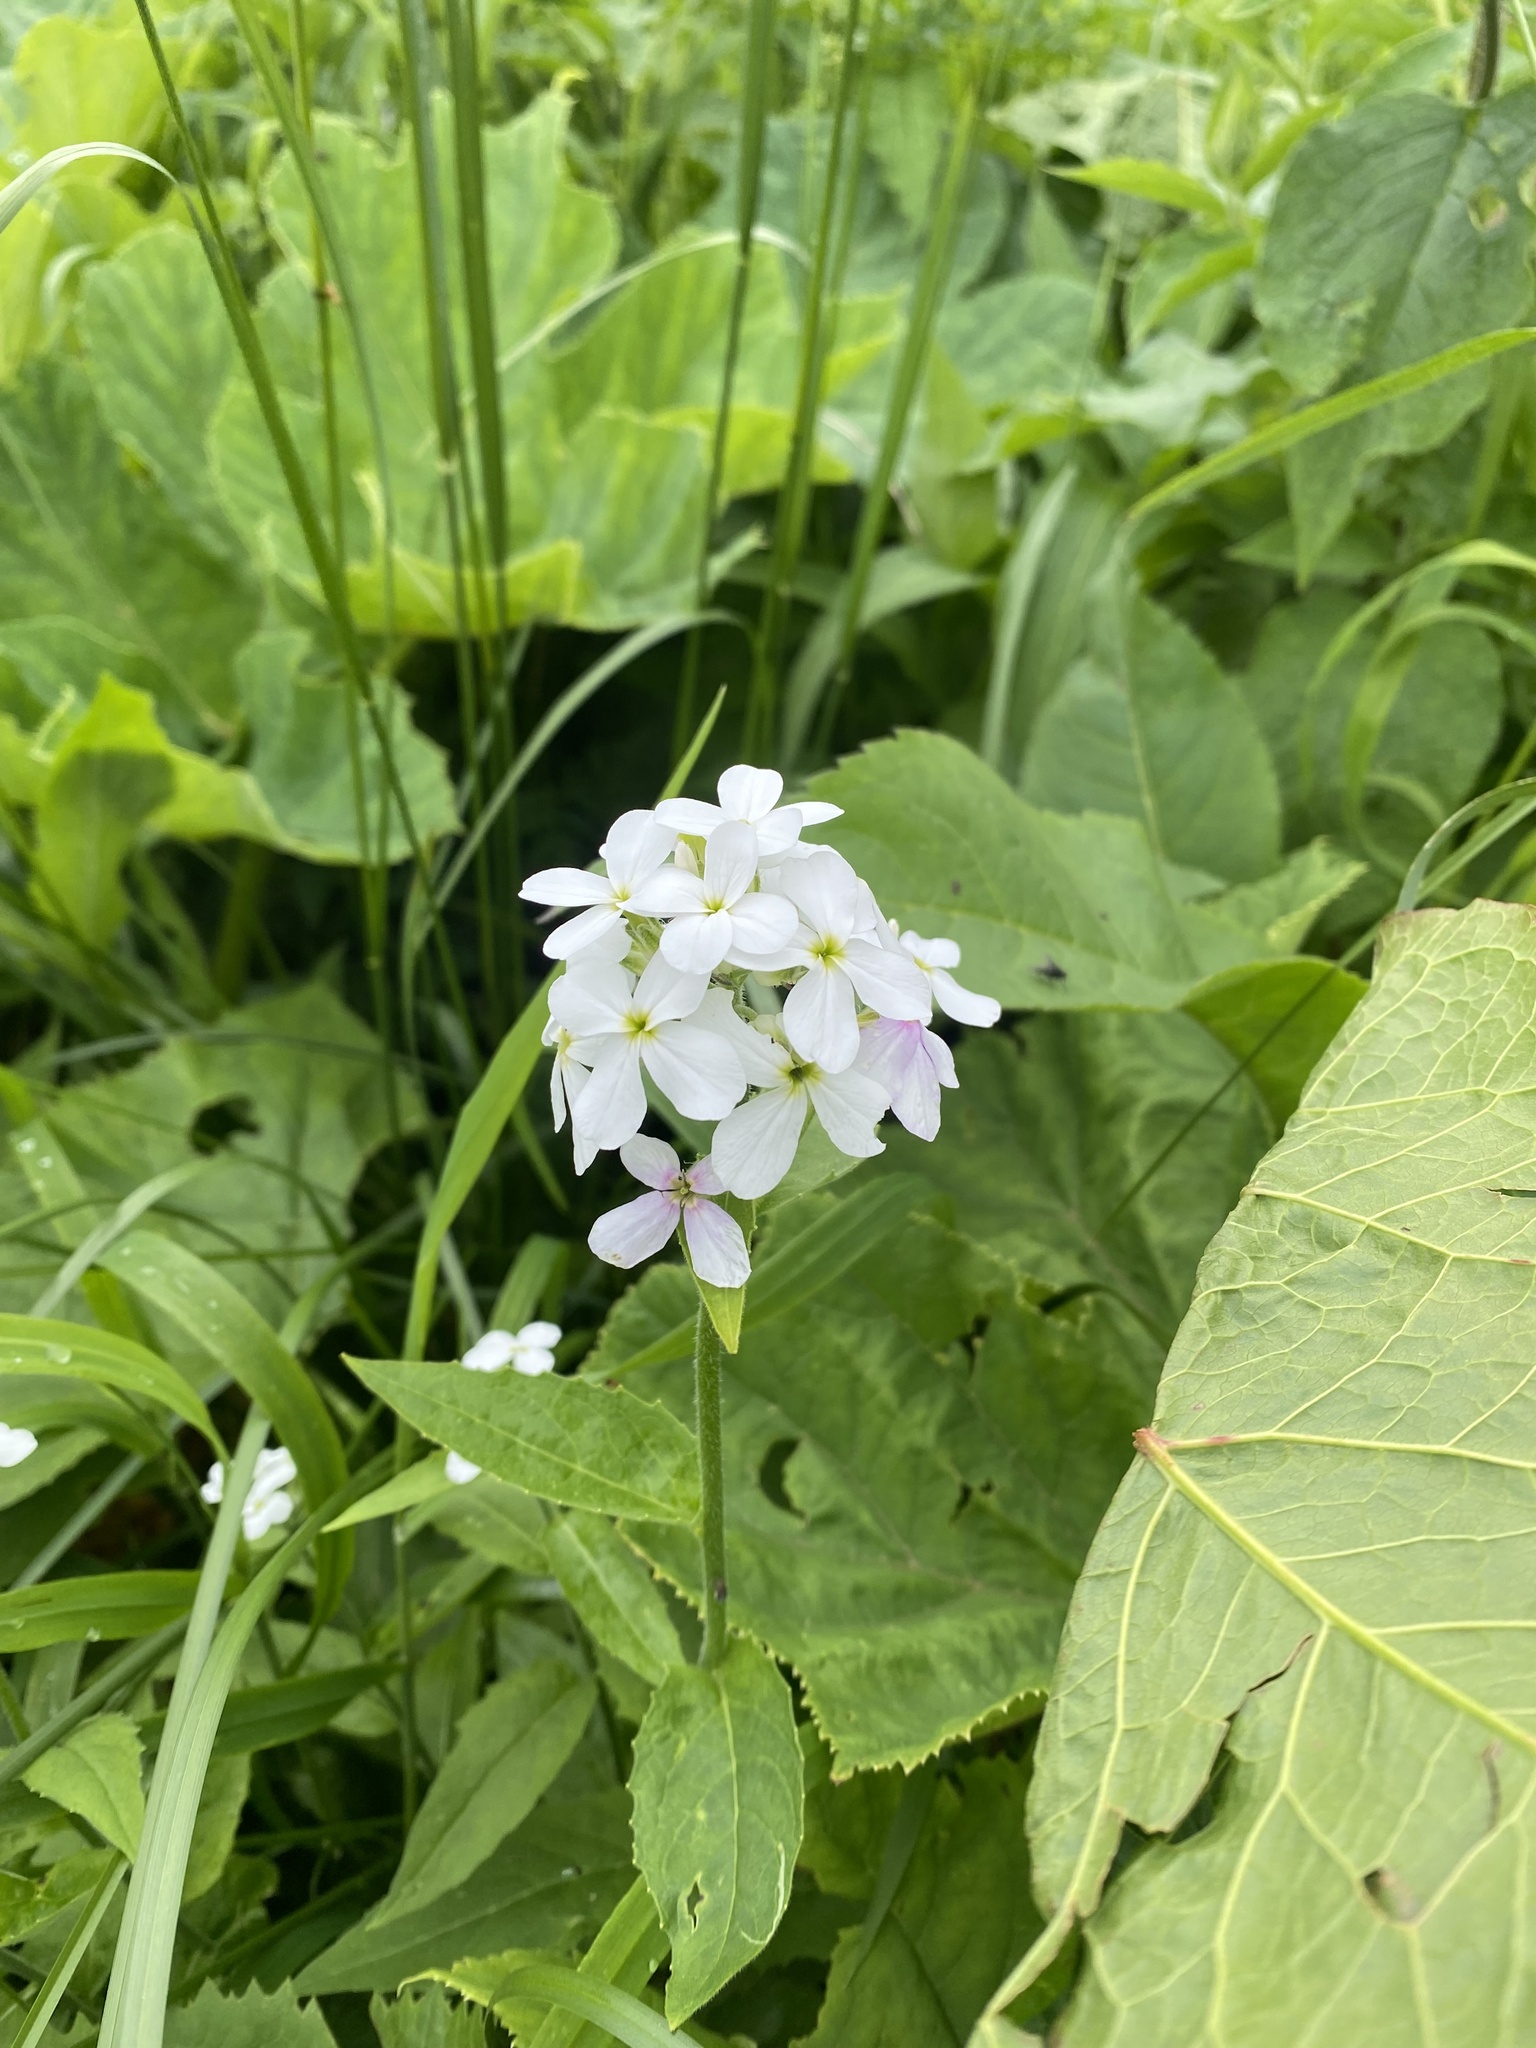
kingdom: Plantae
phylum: Tracheophyta
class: Magnoliopsida
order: Brassicales
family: Brassicaceae
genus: Hesperis
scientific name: Hesperis matronalis
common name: Dame's-violet
